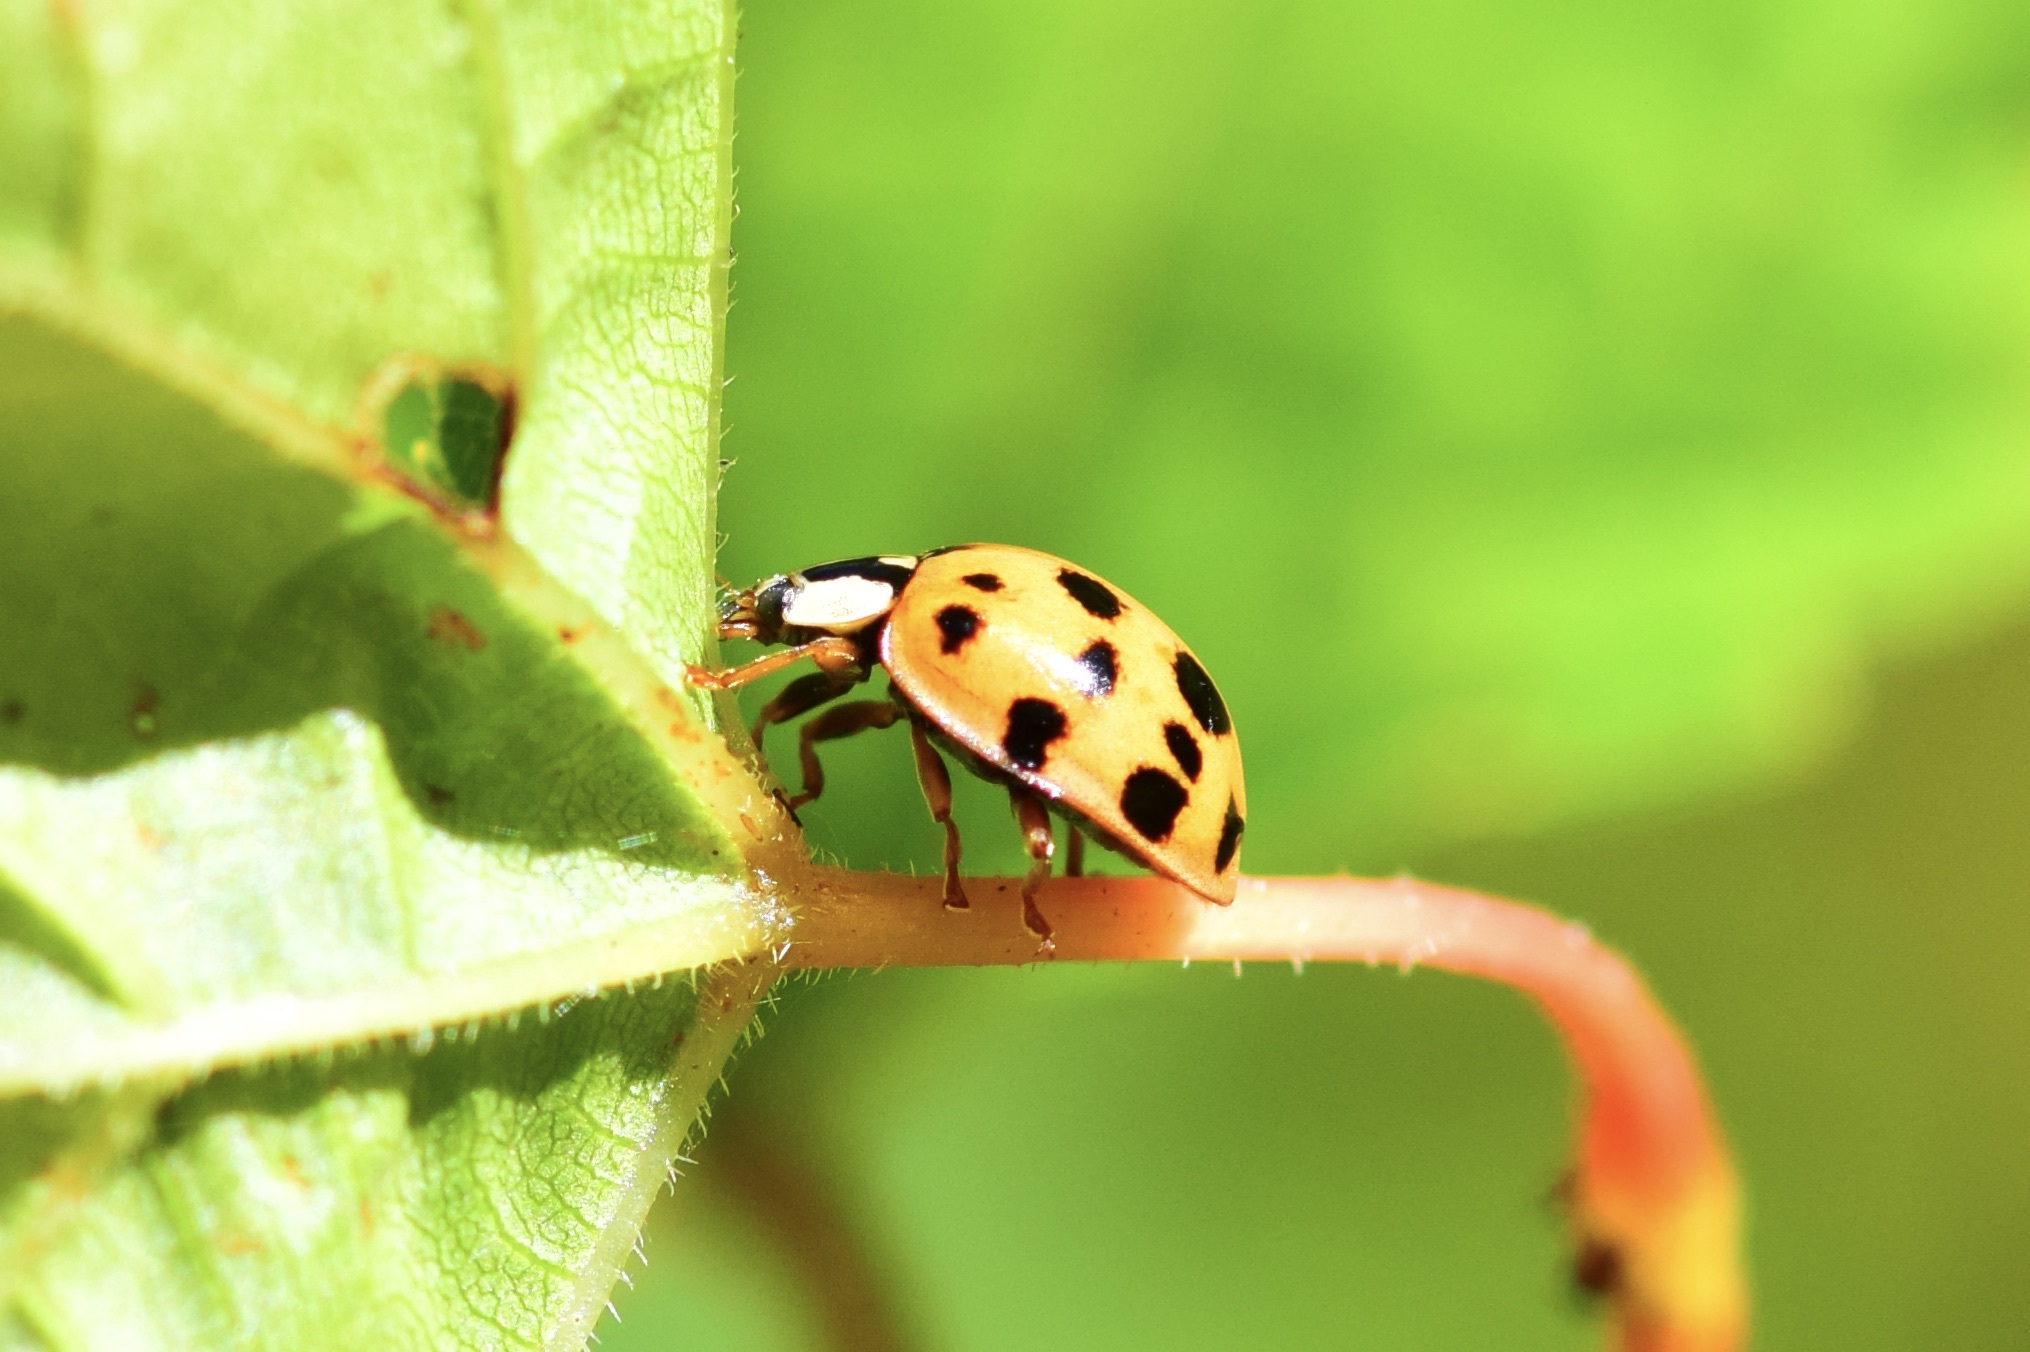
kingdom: Animalia
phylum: Arthropoda
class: Insecta
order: Coleoptera
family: Coccinellidae
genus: Harmonia
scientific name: Harmonia axyridis
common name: Harlequin ladybird
